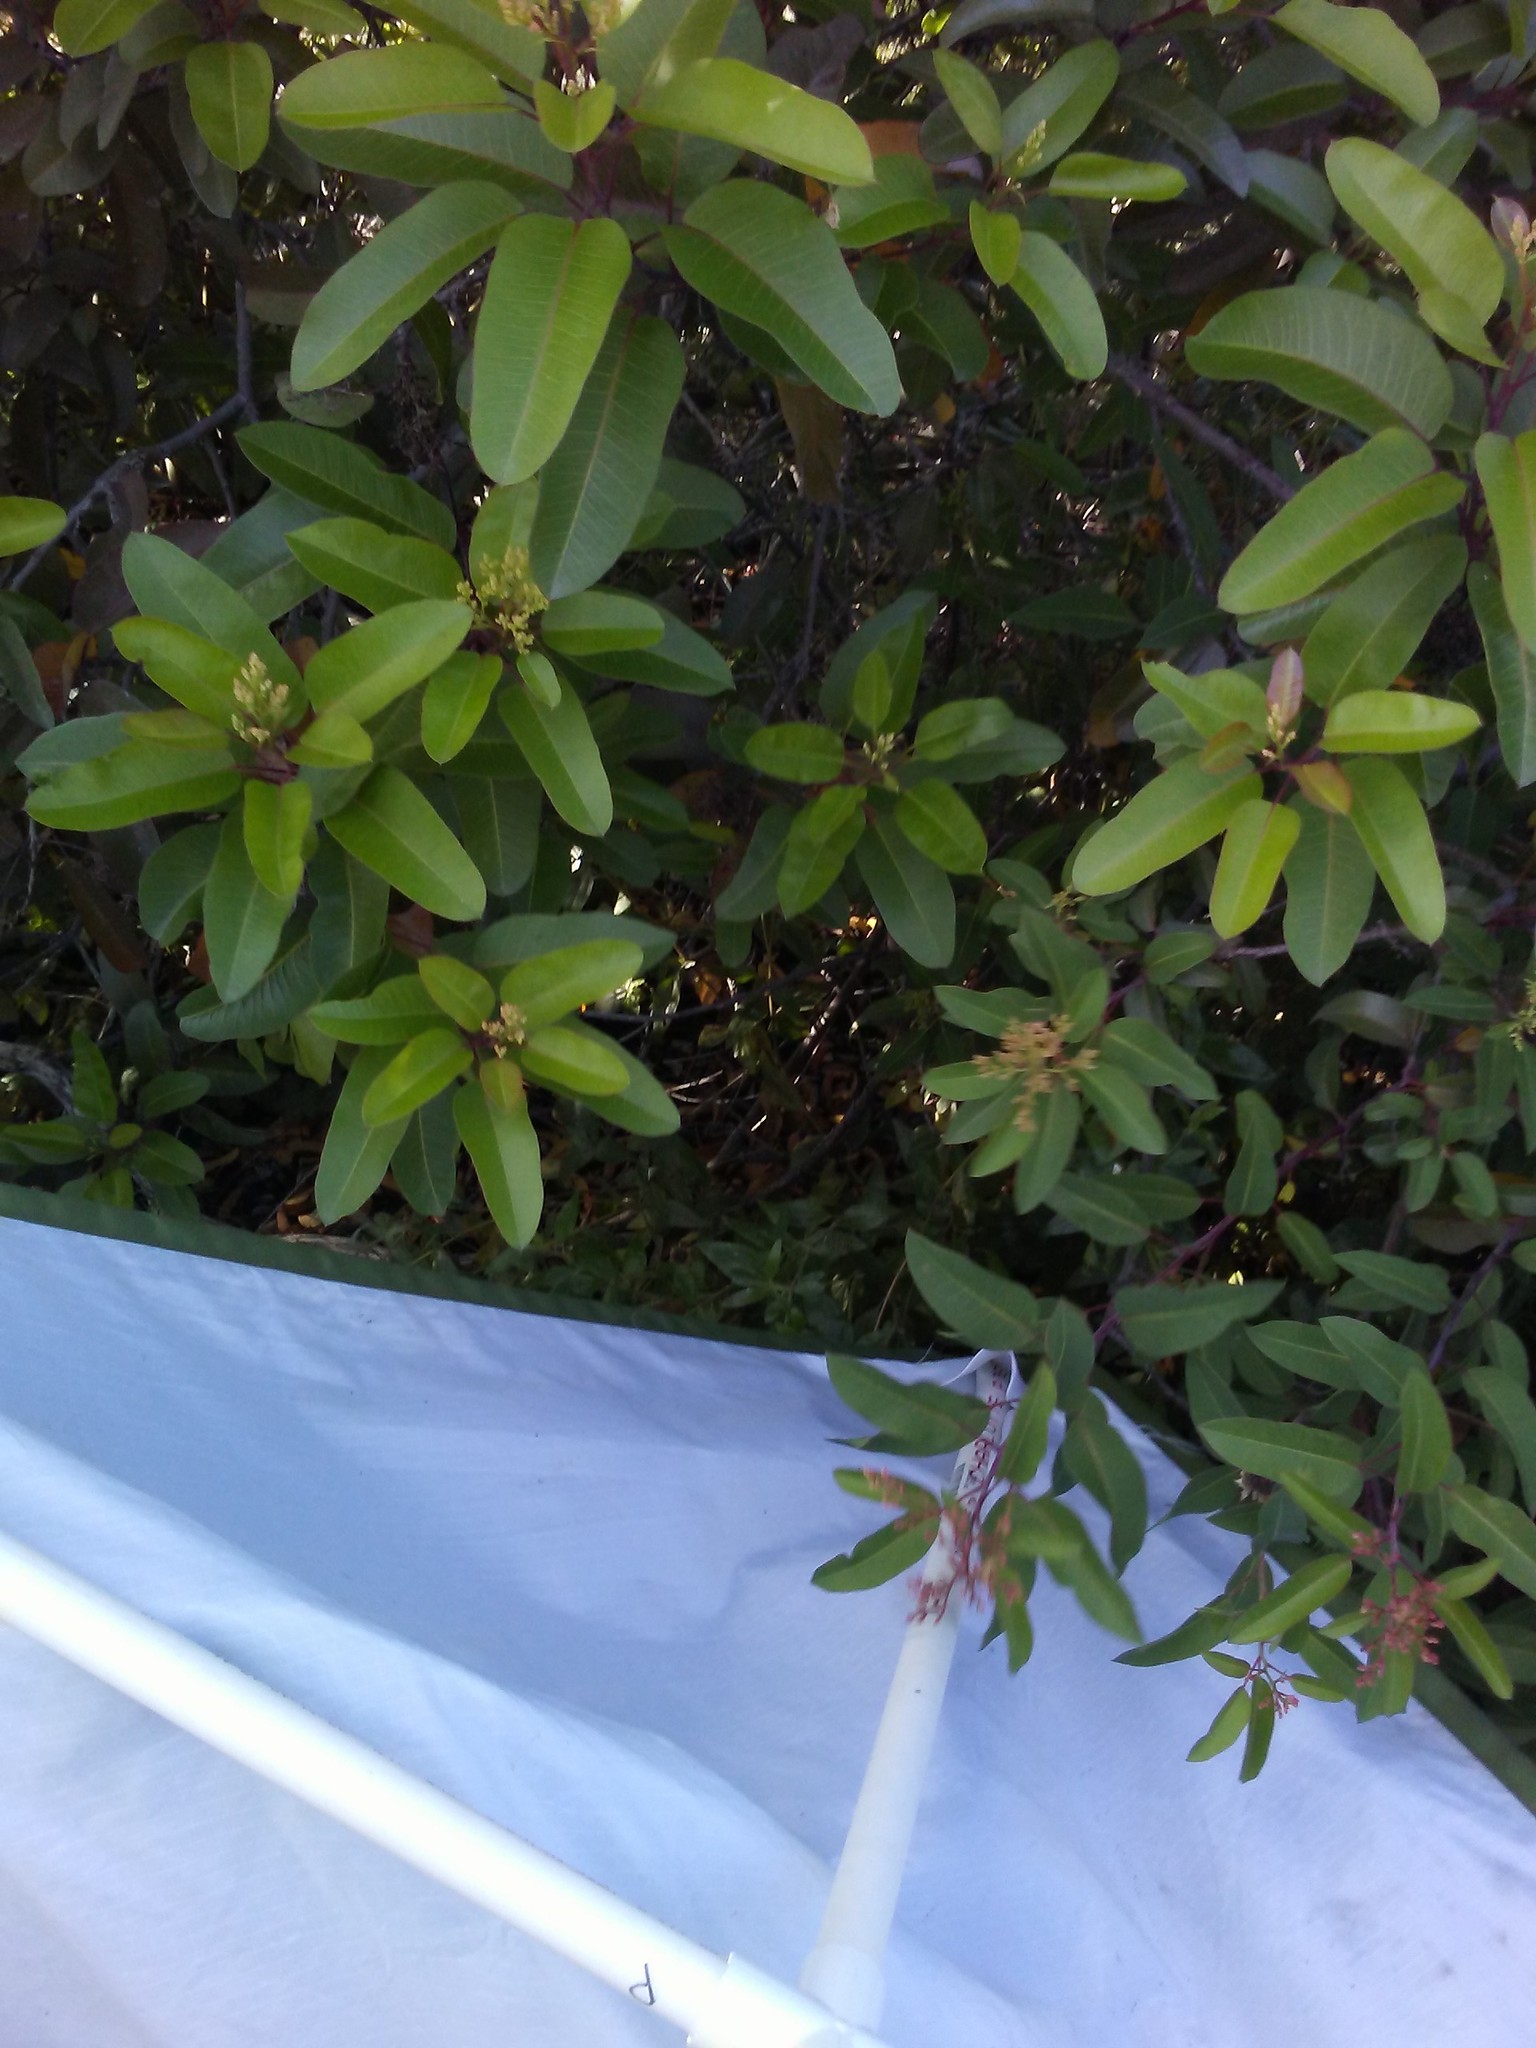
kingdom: Plantae
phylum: Tracheophyta
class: Magnoliopsida
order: Sapindales
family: Anacardiaceae
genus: Malosma
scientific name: Malosma laurina
